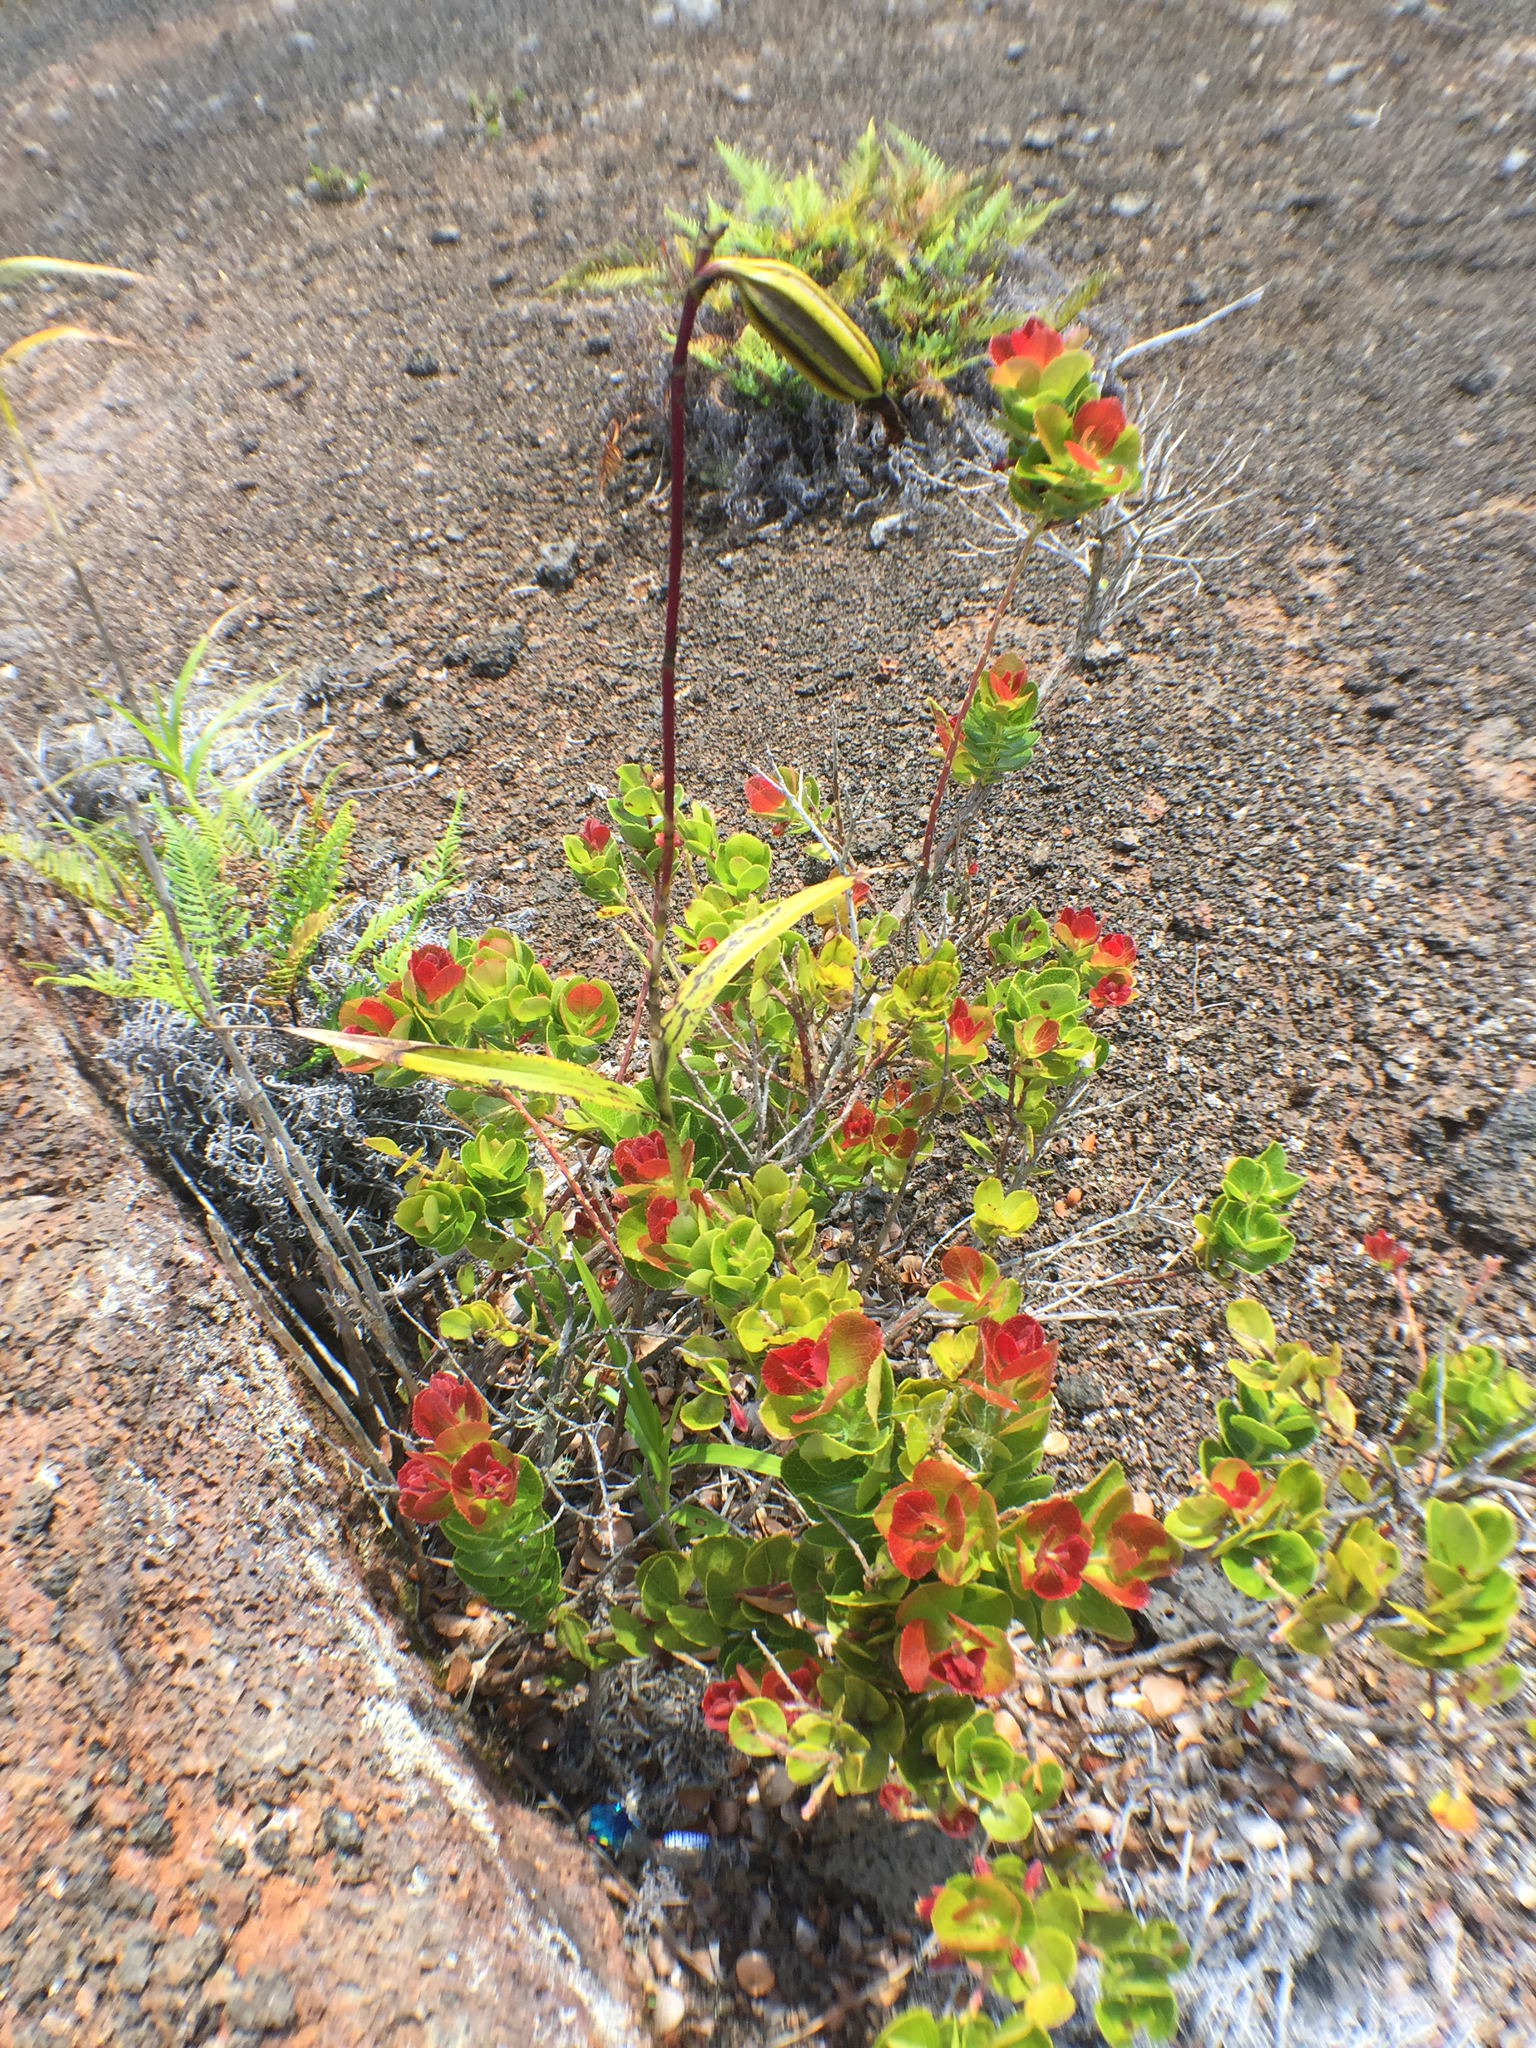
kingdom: Plantae
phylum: Tracheophyta
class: Magnoliopsida
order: Ericales
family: Ericaceae
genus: Vaccinium
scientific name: Vaccinium reticulatum
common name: Ohelo
